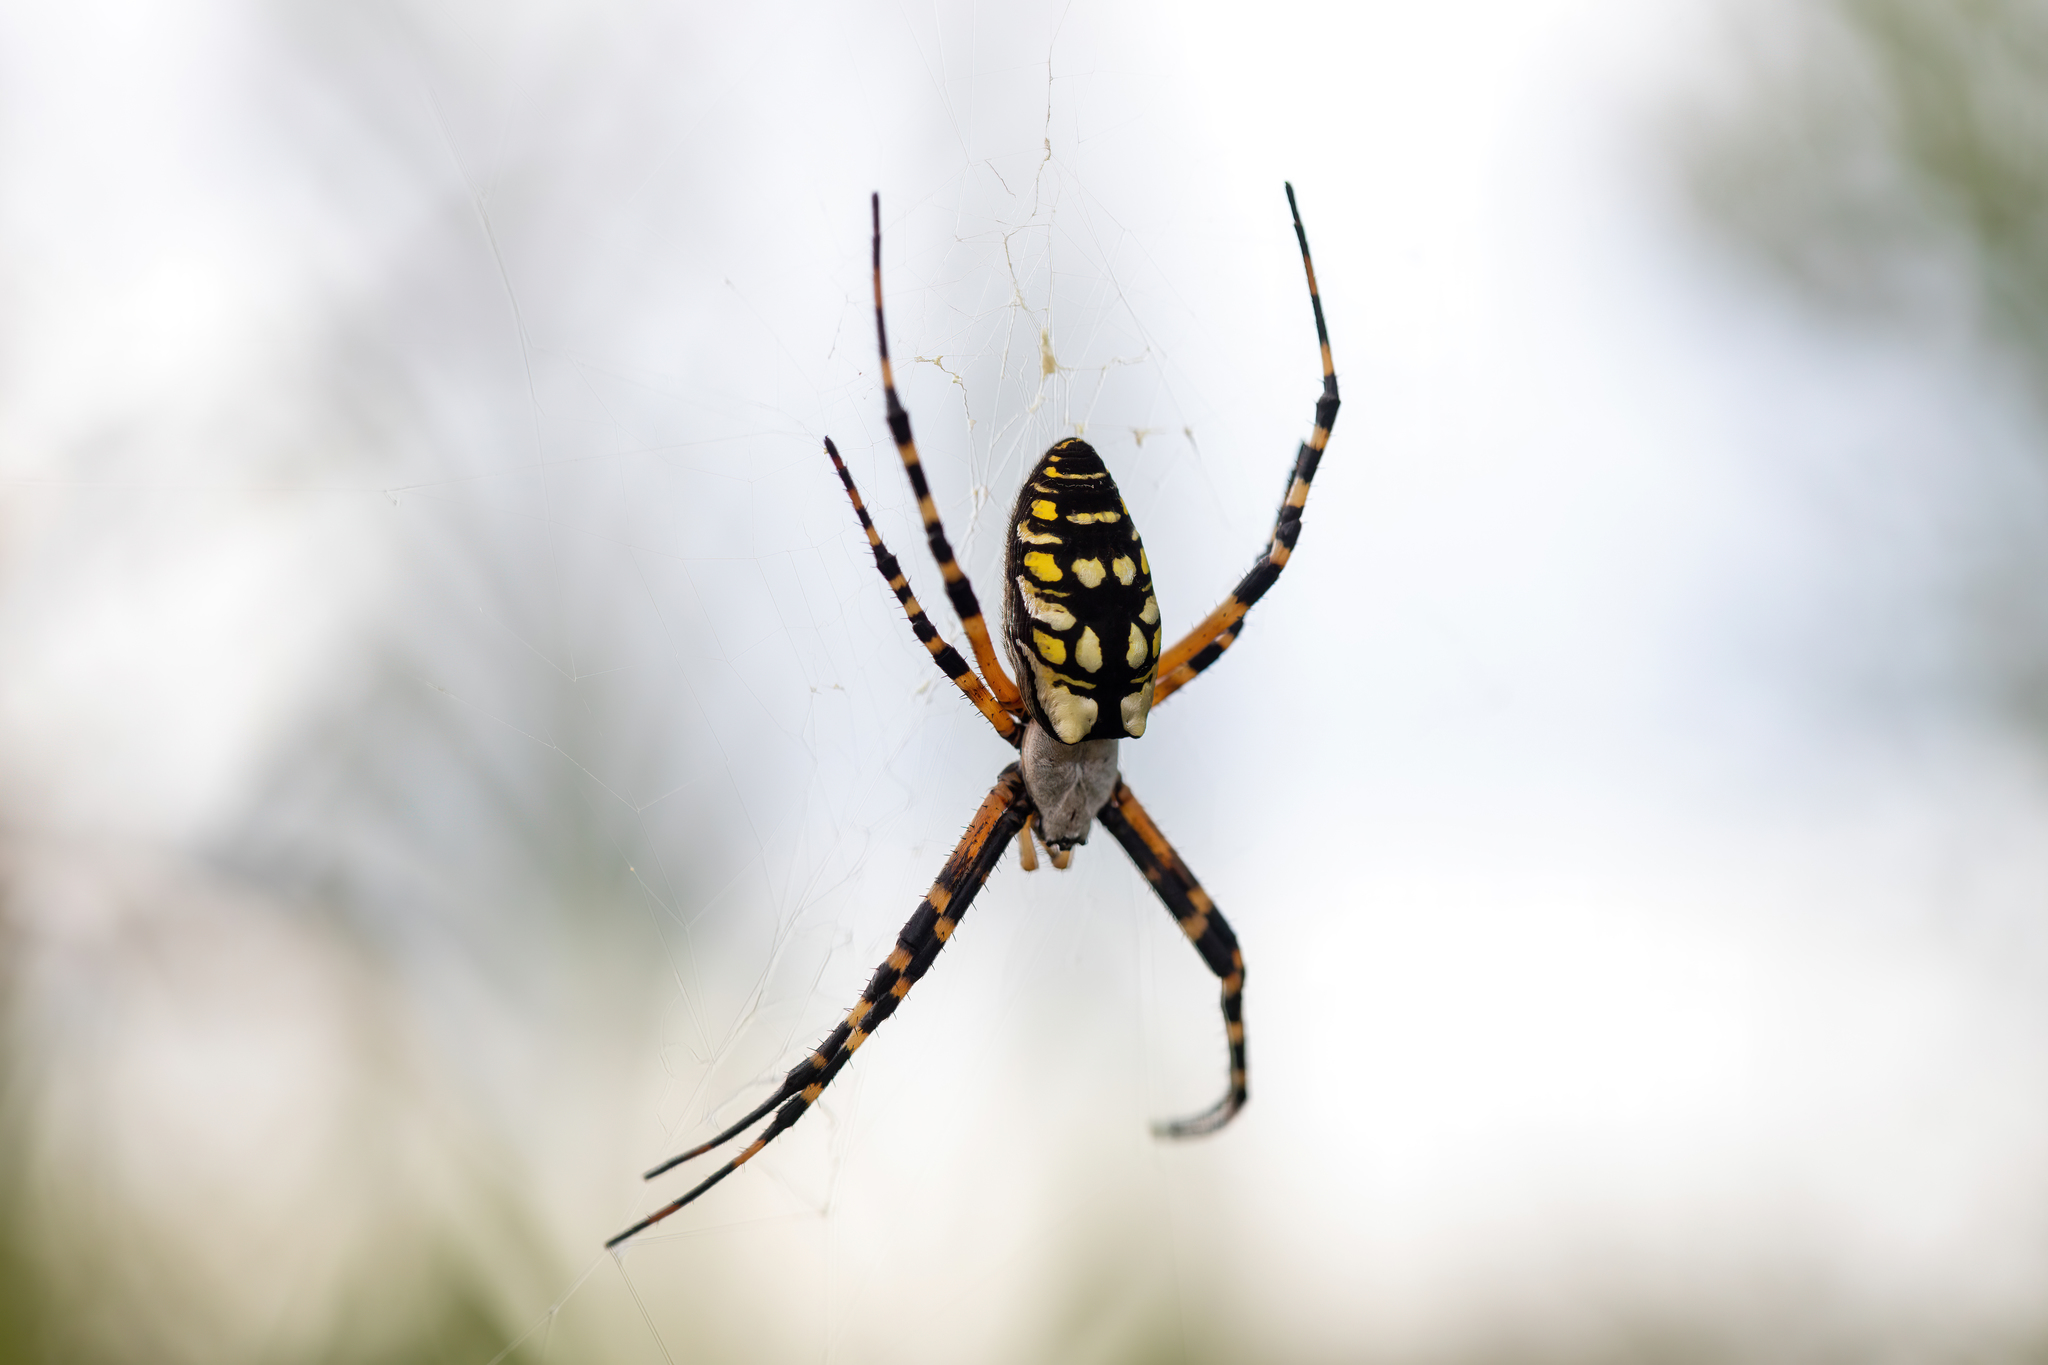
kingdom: Animalia
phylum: Arthropoda
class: Arachnida
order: Araneae
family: Araneidae
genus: Argiope
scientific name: Argiope aurantia
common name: Orb weavers
